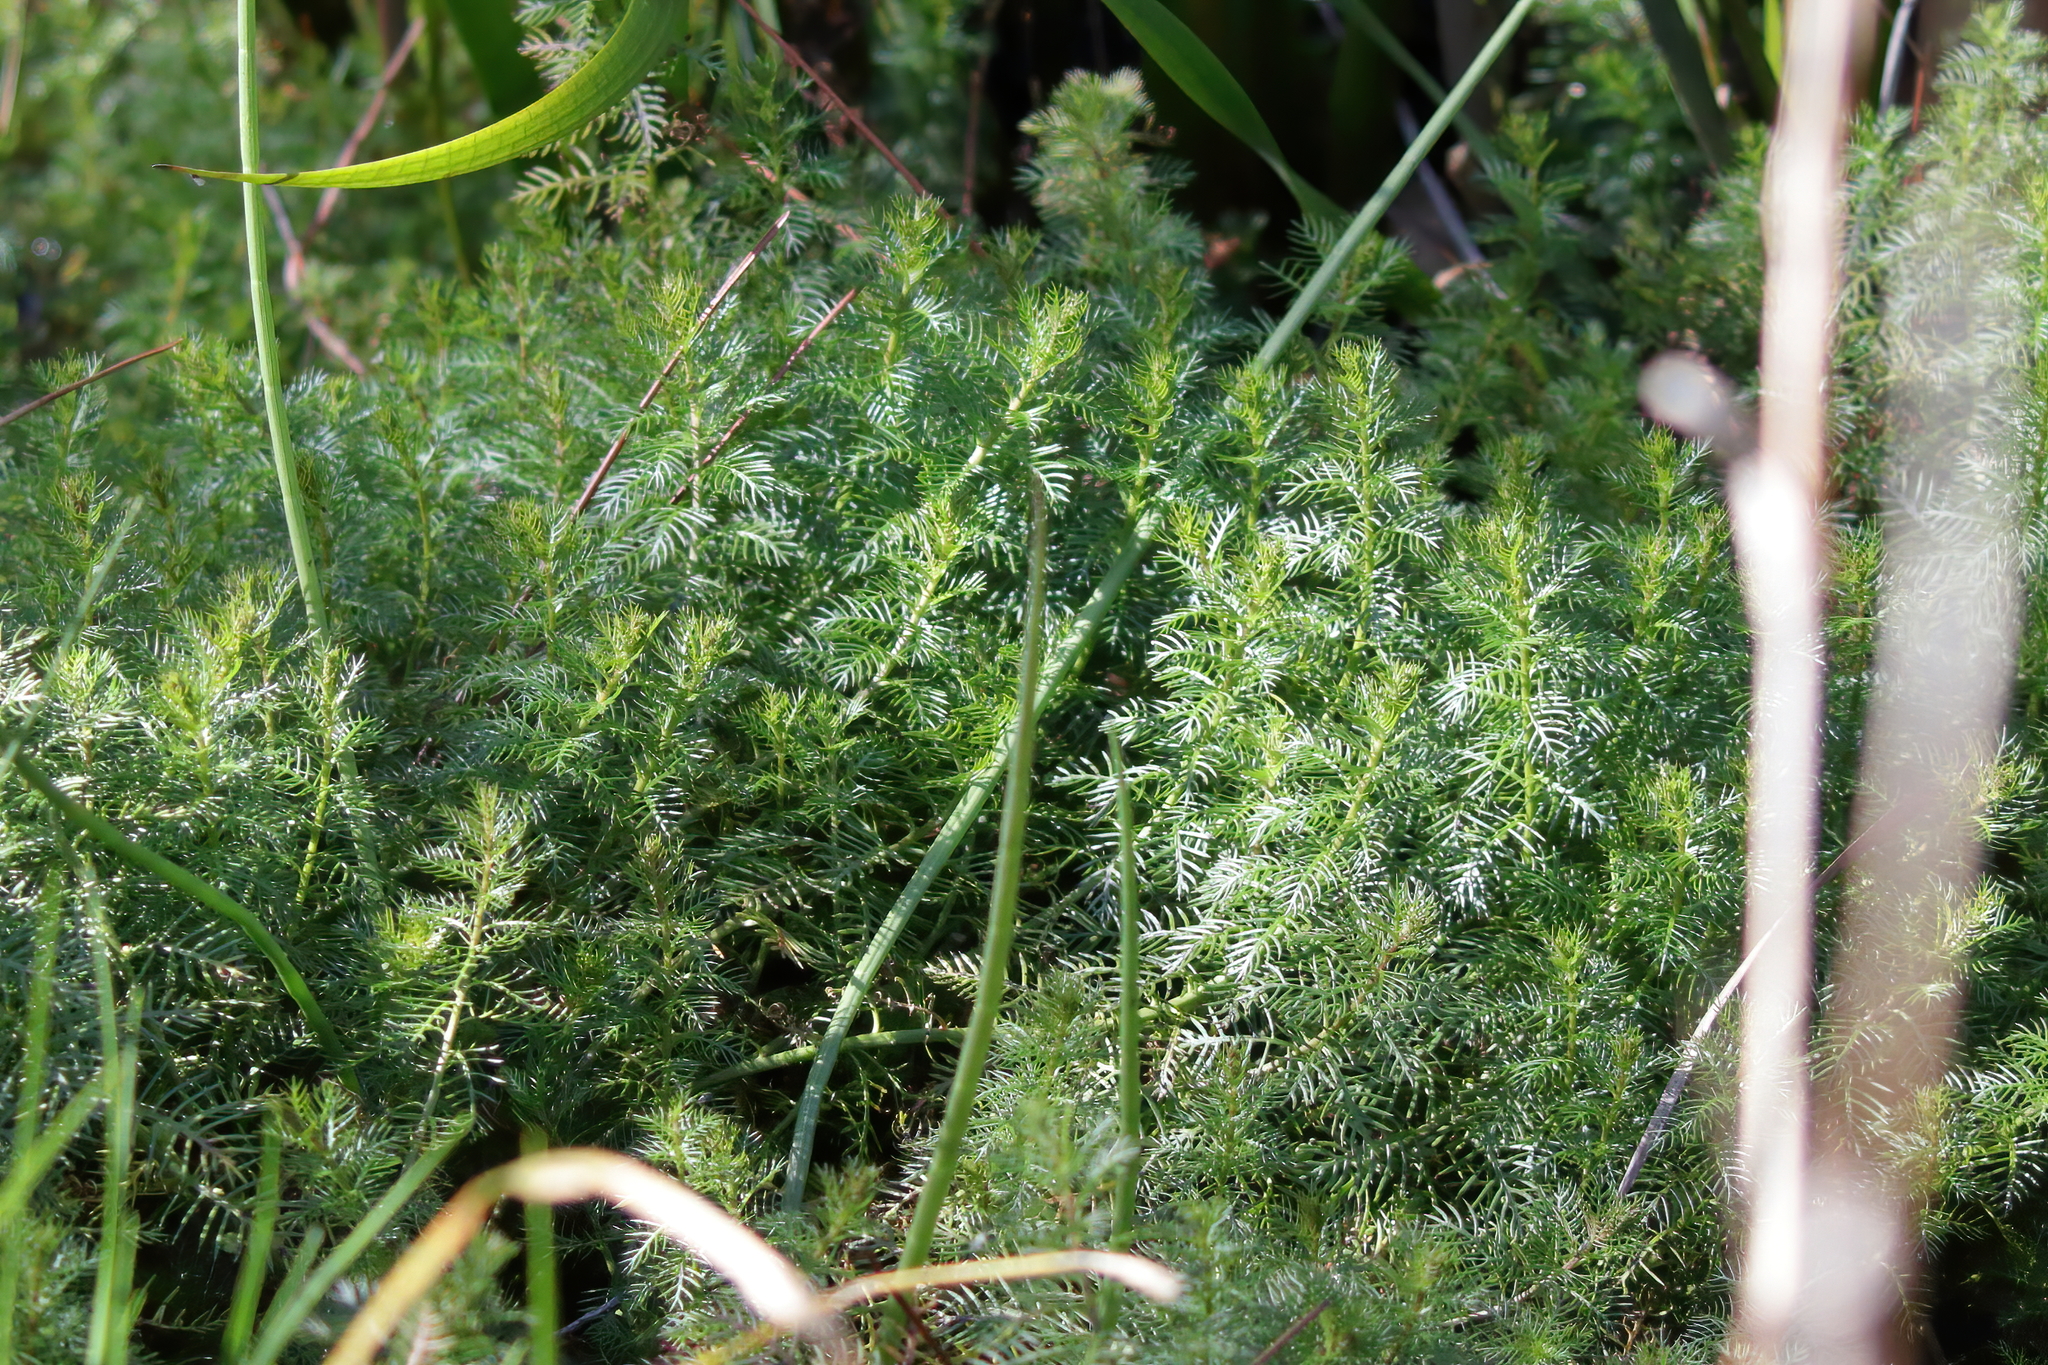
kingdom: Plantae
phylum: Tracheophyta
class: Magnoliopsida
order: Saxifragales
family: Haloragaceae
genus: Proserpinaca
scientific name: Proserpinaca pectinata
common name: Comb-leaved mermaidweed
